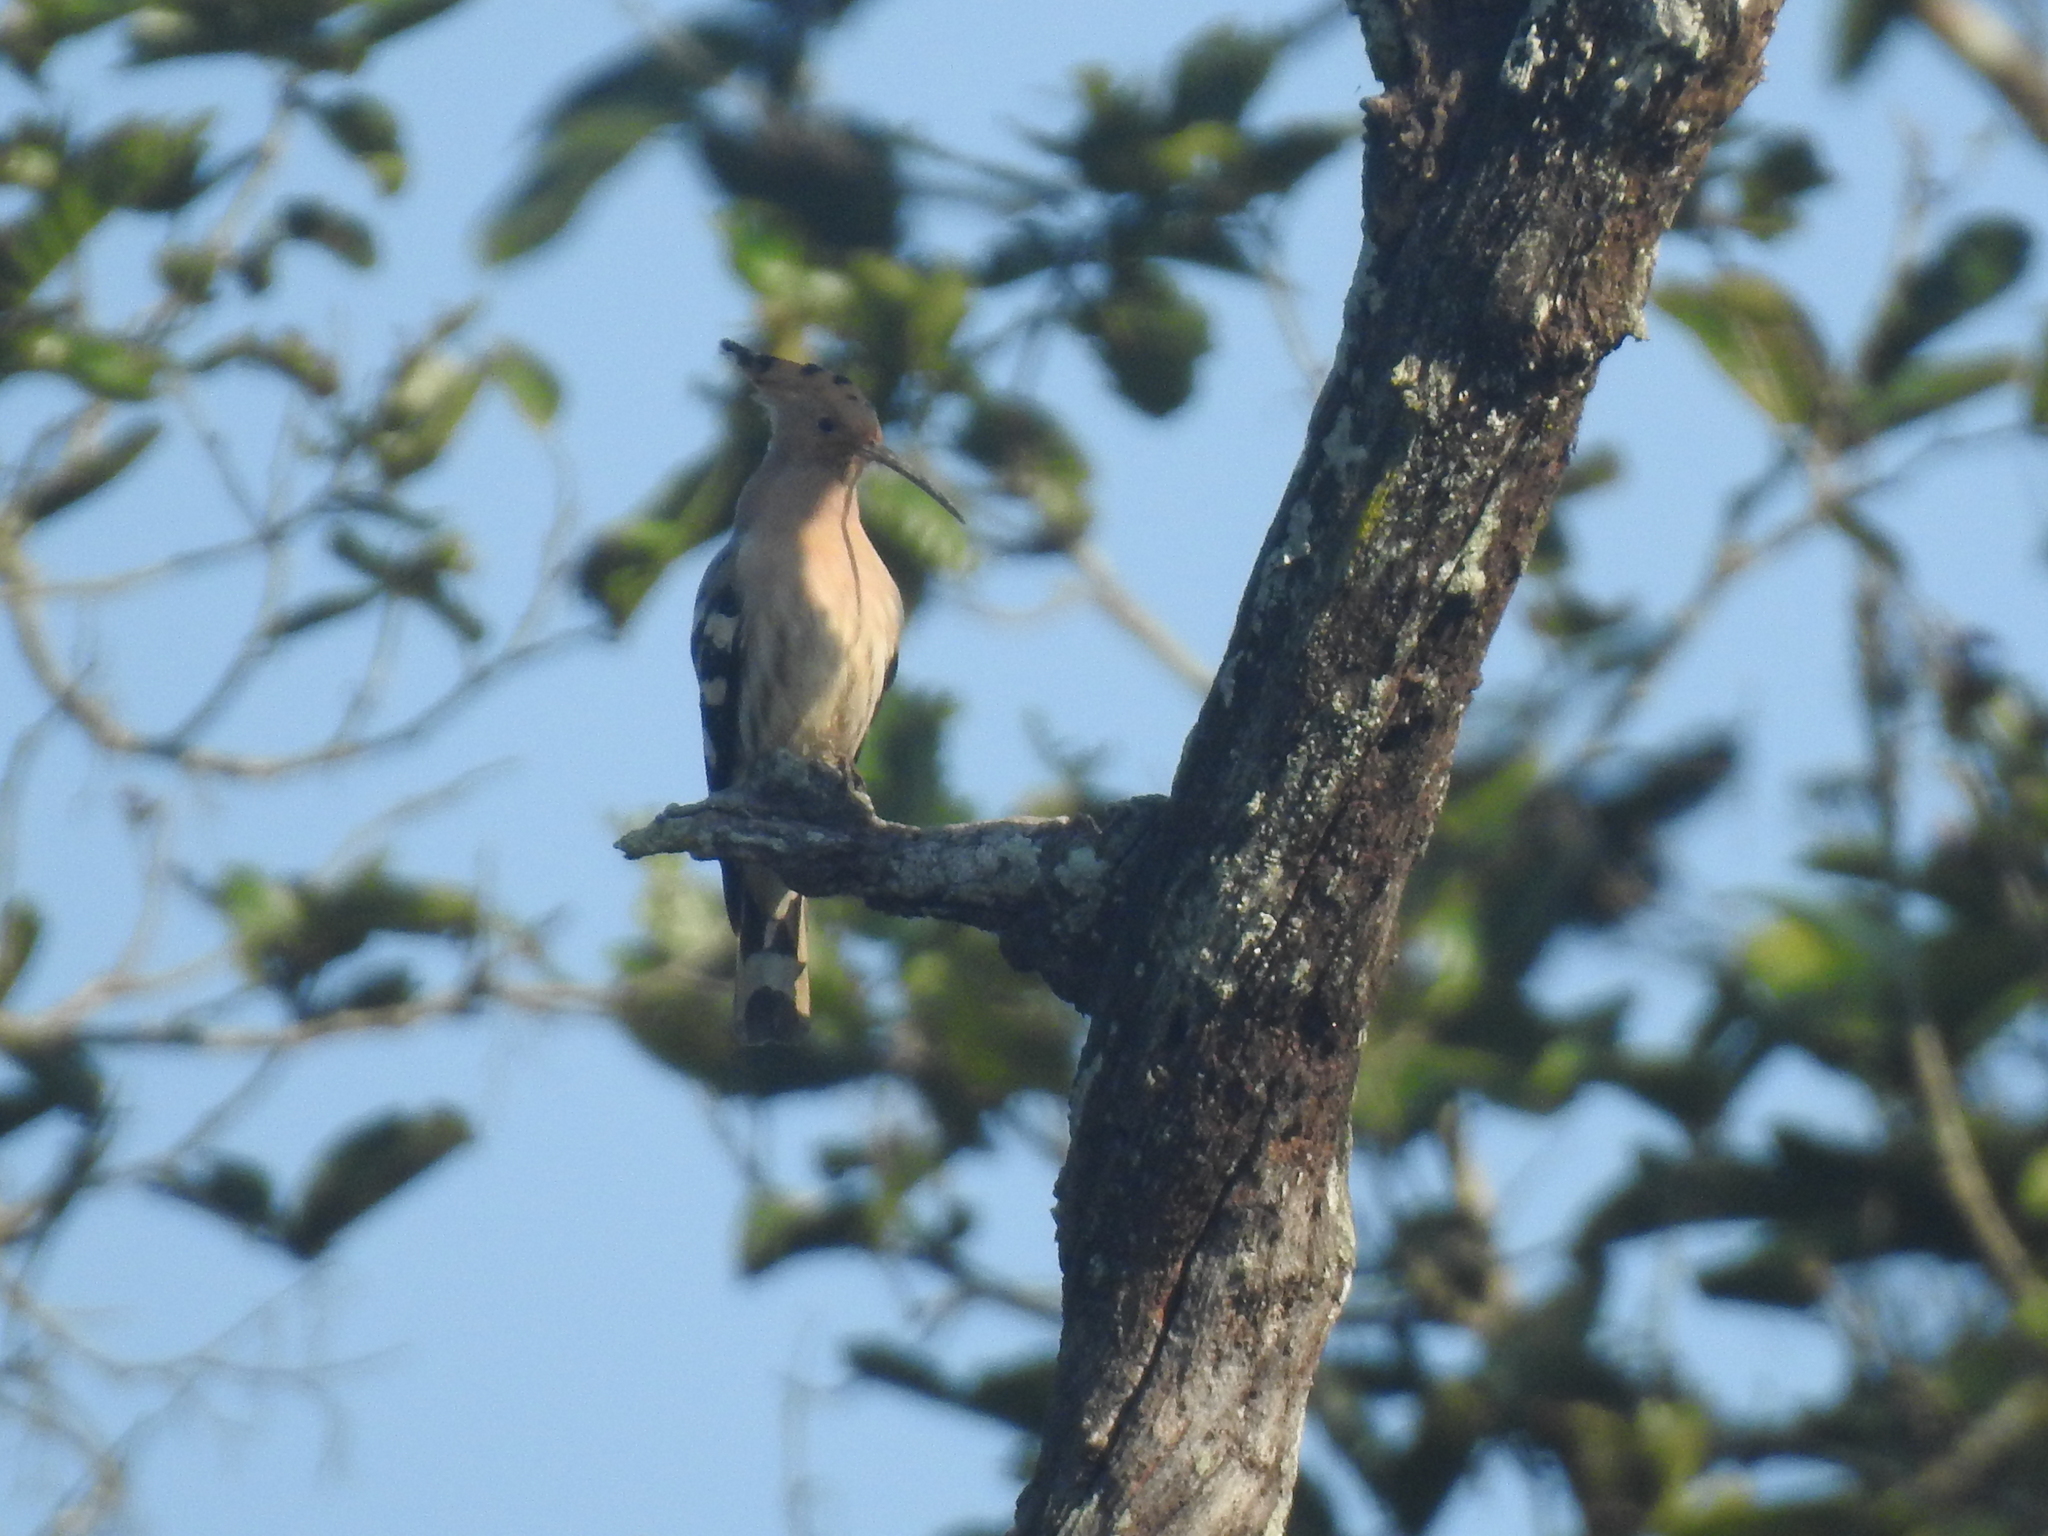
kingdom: Animalia
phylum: Chordata
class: Aves
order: Bucerotiformes
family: Upupidae
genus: Upupa
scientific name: Upupa epops
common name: Eurasian hoopoe
